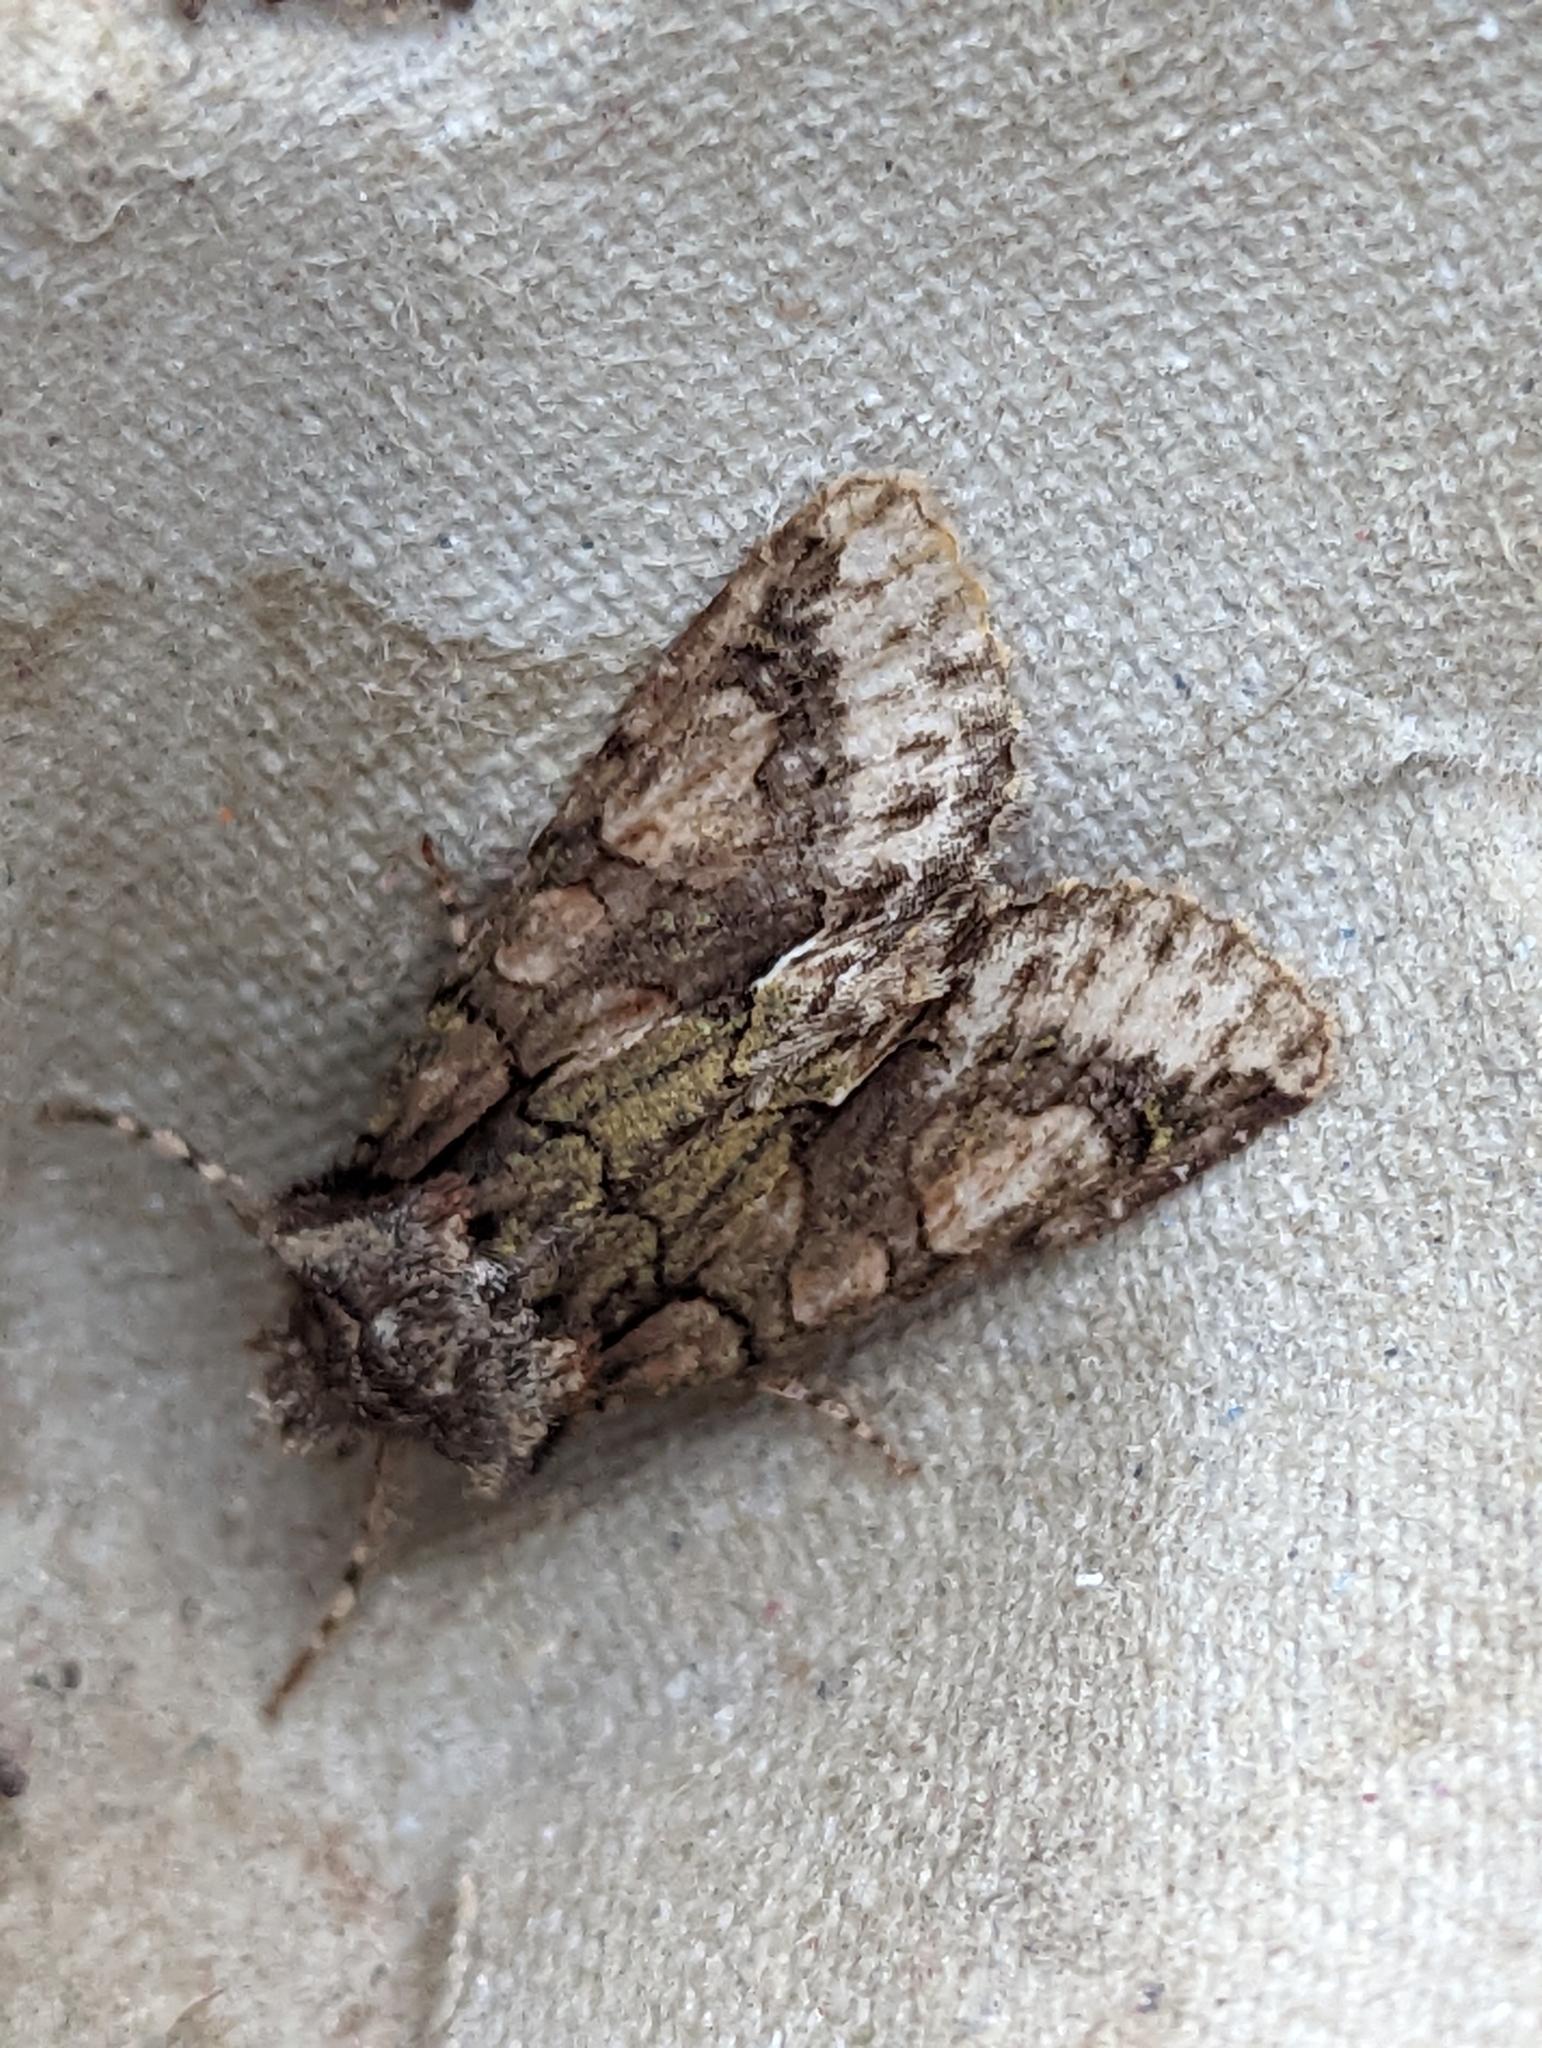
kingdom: Animalia
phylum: Arthropoda
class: Insecta
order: Lepidoptera
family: Noctuidae
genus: Allophyes
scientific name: Allophyes oxyacanthae
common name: Green-brindled crescent
